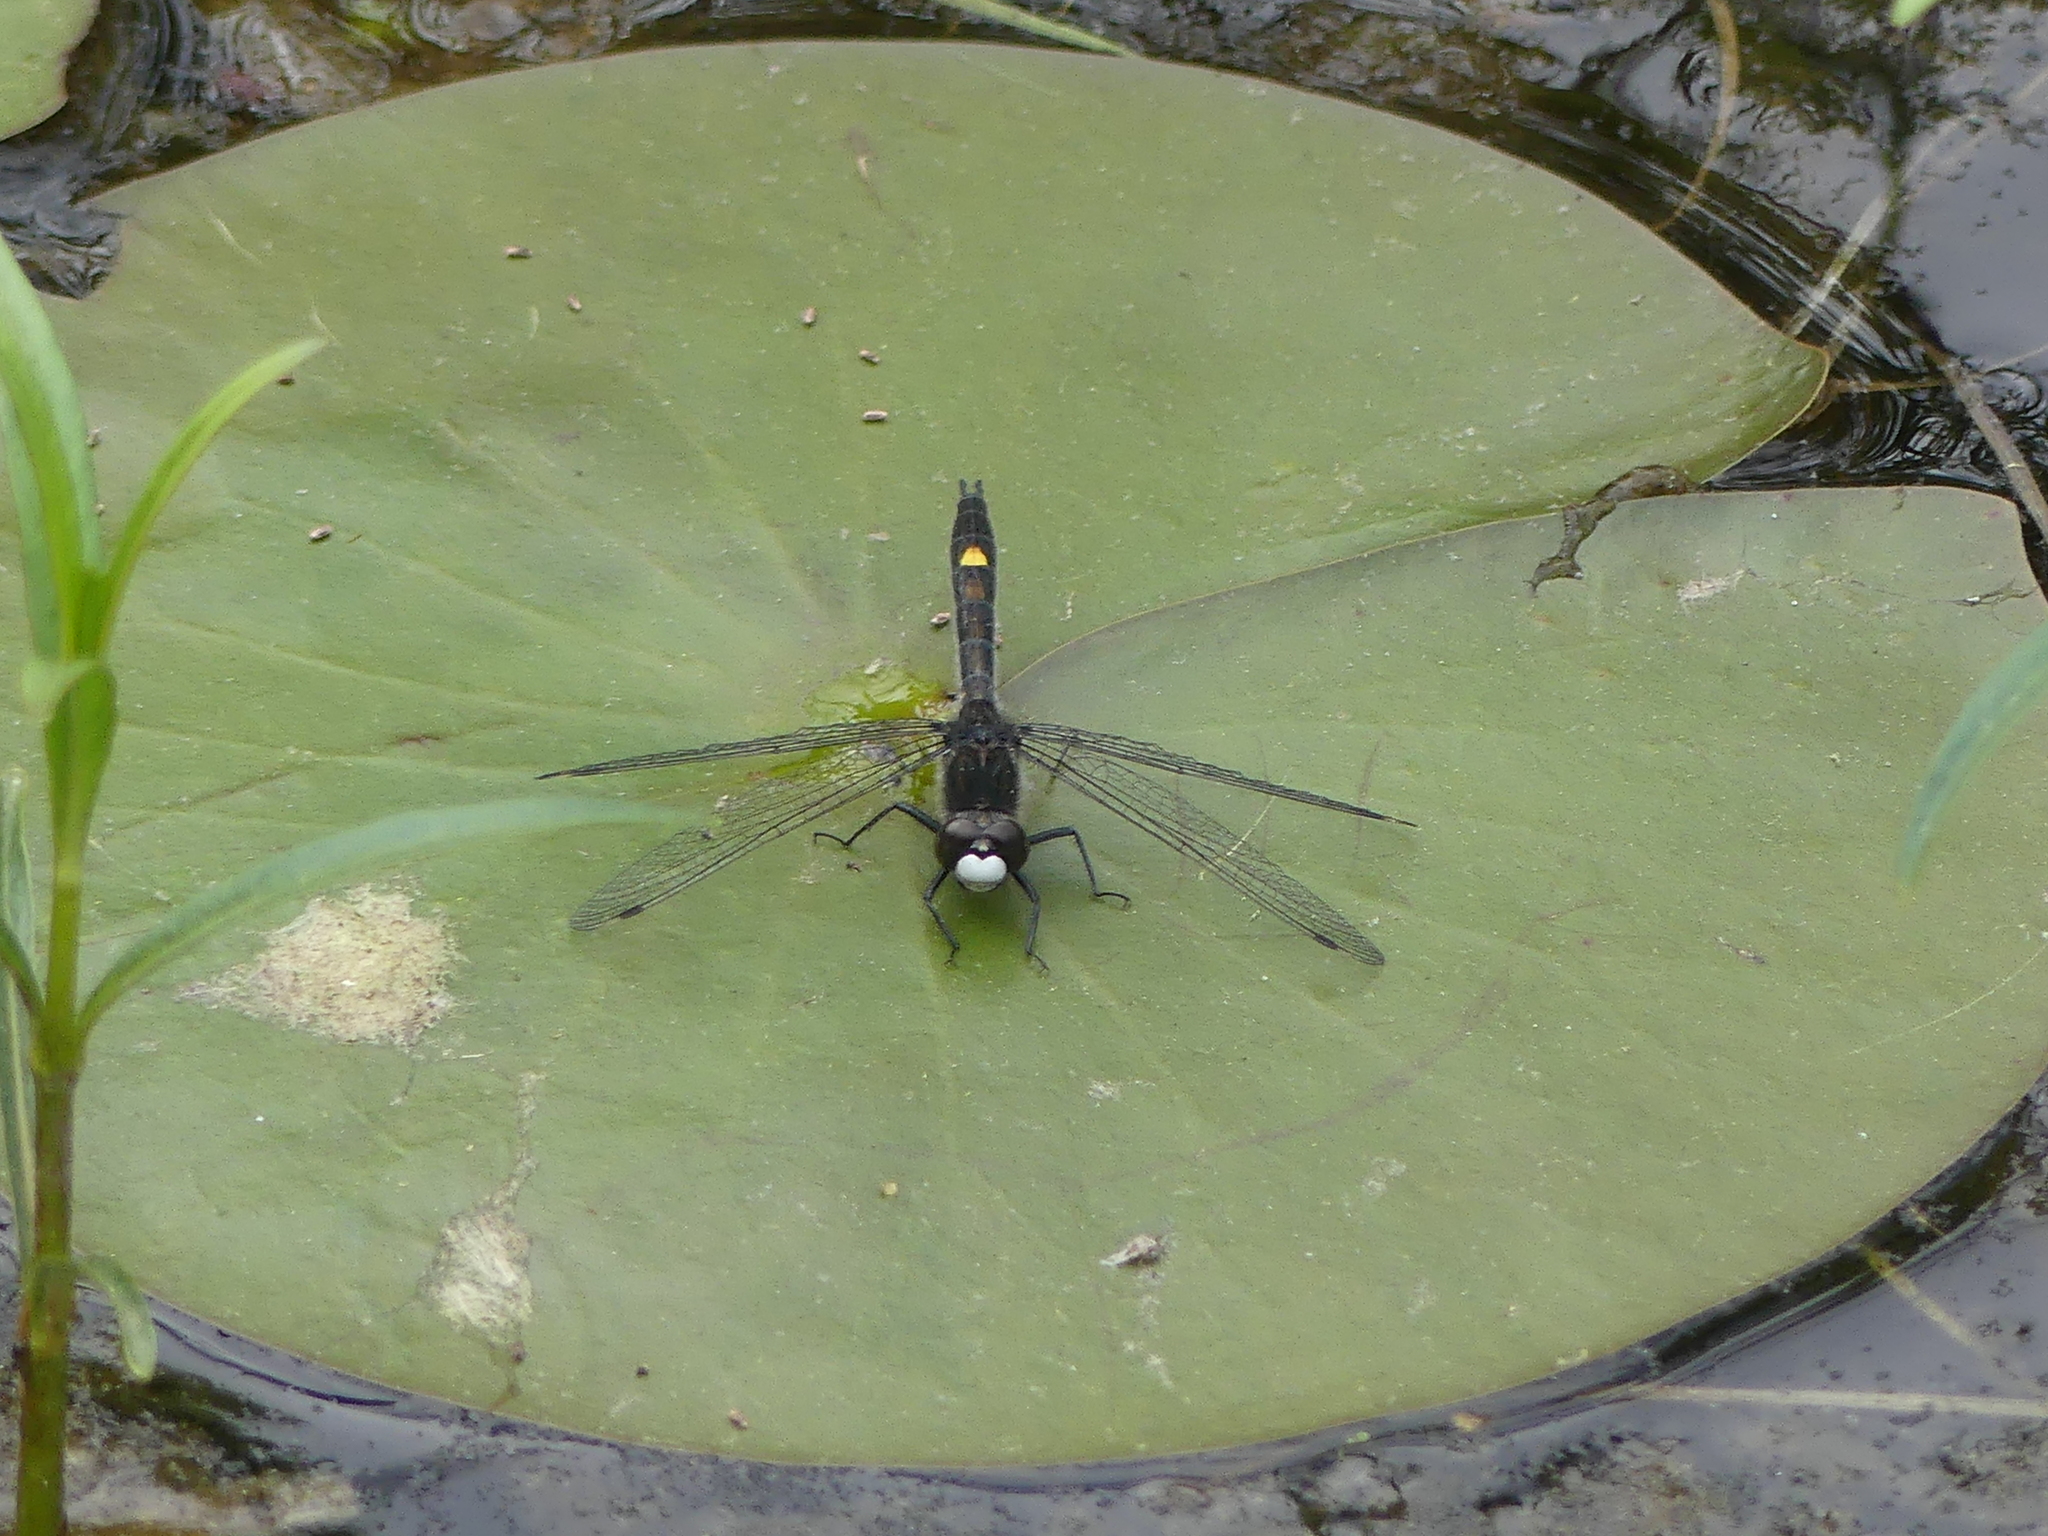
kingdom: Animalia
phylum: Arthropoda
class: Insecta
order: Odonata
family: Libellulidae
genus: Leucorrhinia
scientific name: Leucorrhinia intacta
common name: Dot-tailed whiteface
